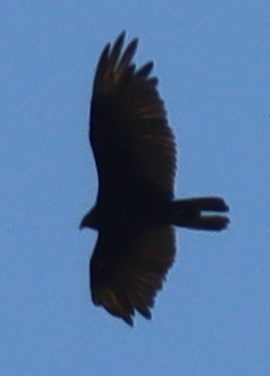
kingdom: Animalia
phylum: Chordata
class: Aves
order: Accipitriformes
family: Cathartidae
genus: Cathartes
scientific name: Cathartes aura
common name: Turkey vulture
